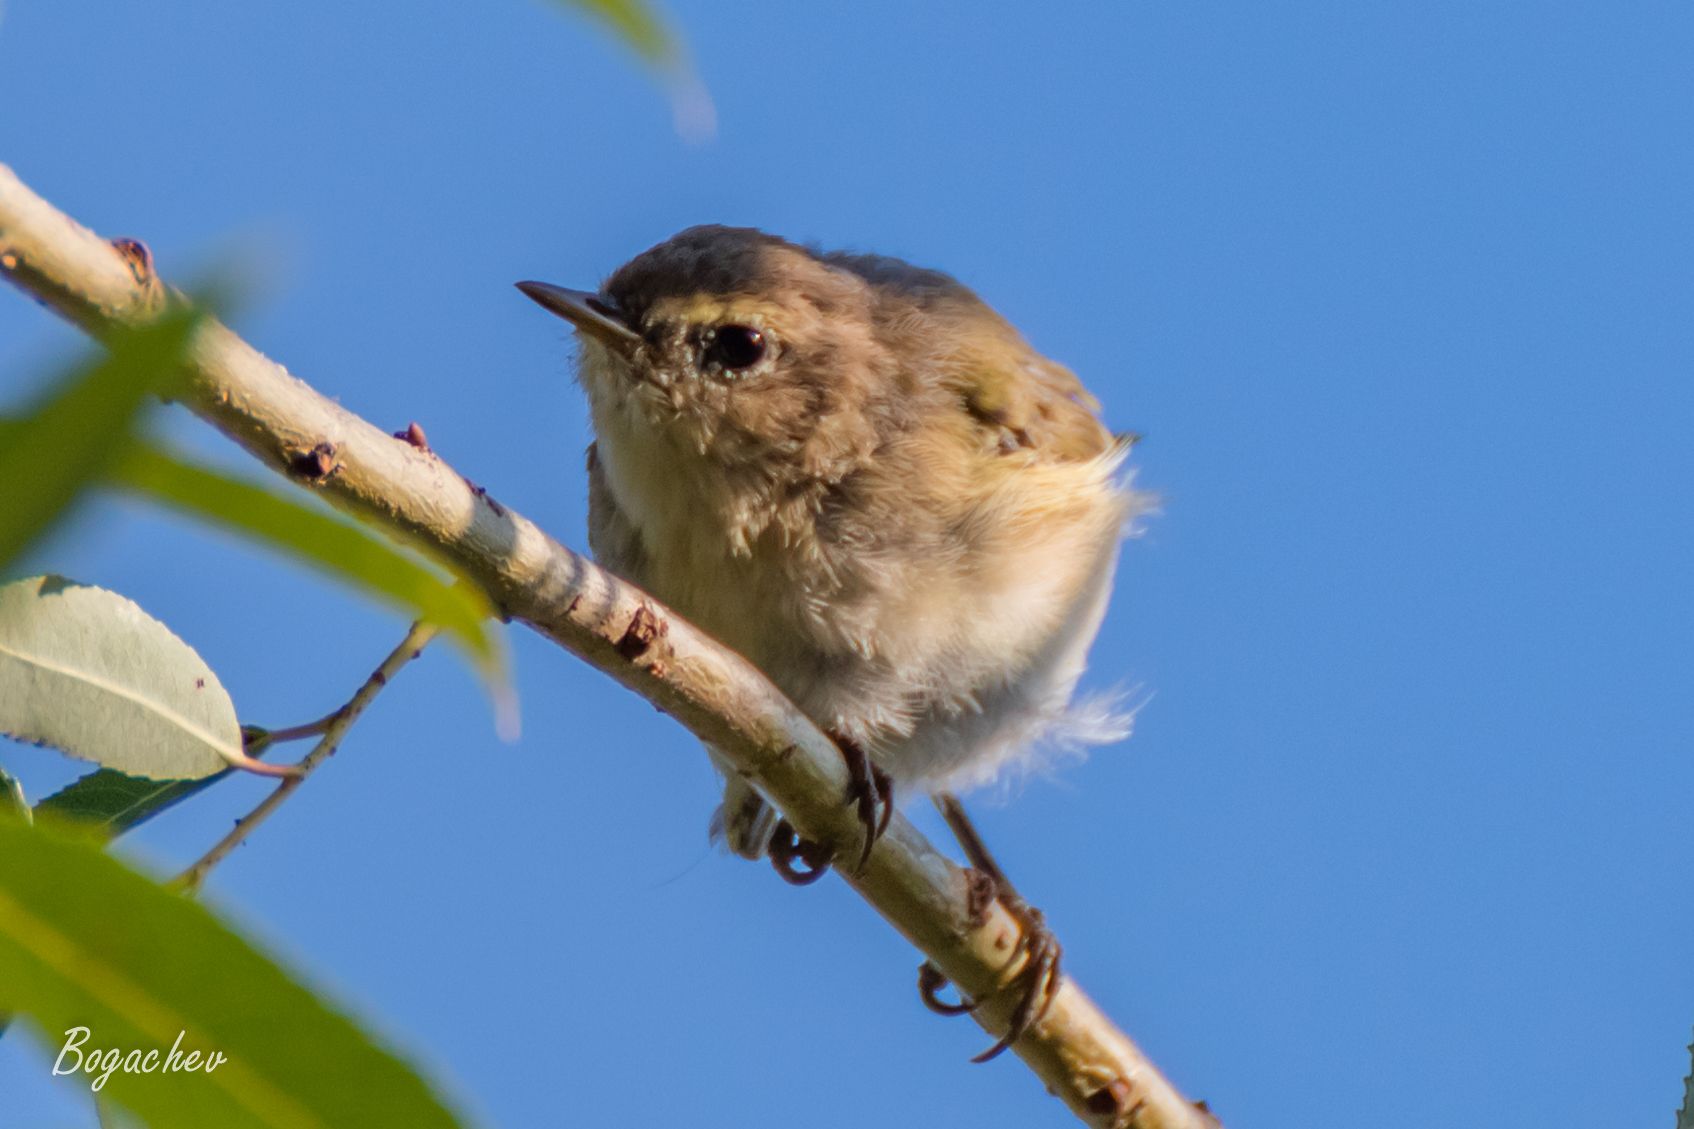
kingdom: Animalia
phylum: Chordata
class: Aves
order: Passeriformes
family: Phylloscopidae
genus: Phylloscopus
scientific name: Phylloscopus collybita
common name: Common chiffchaff
